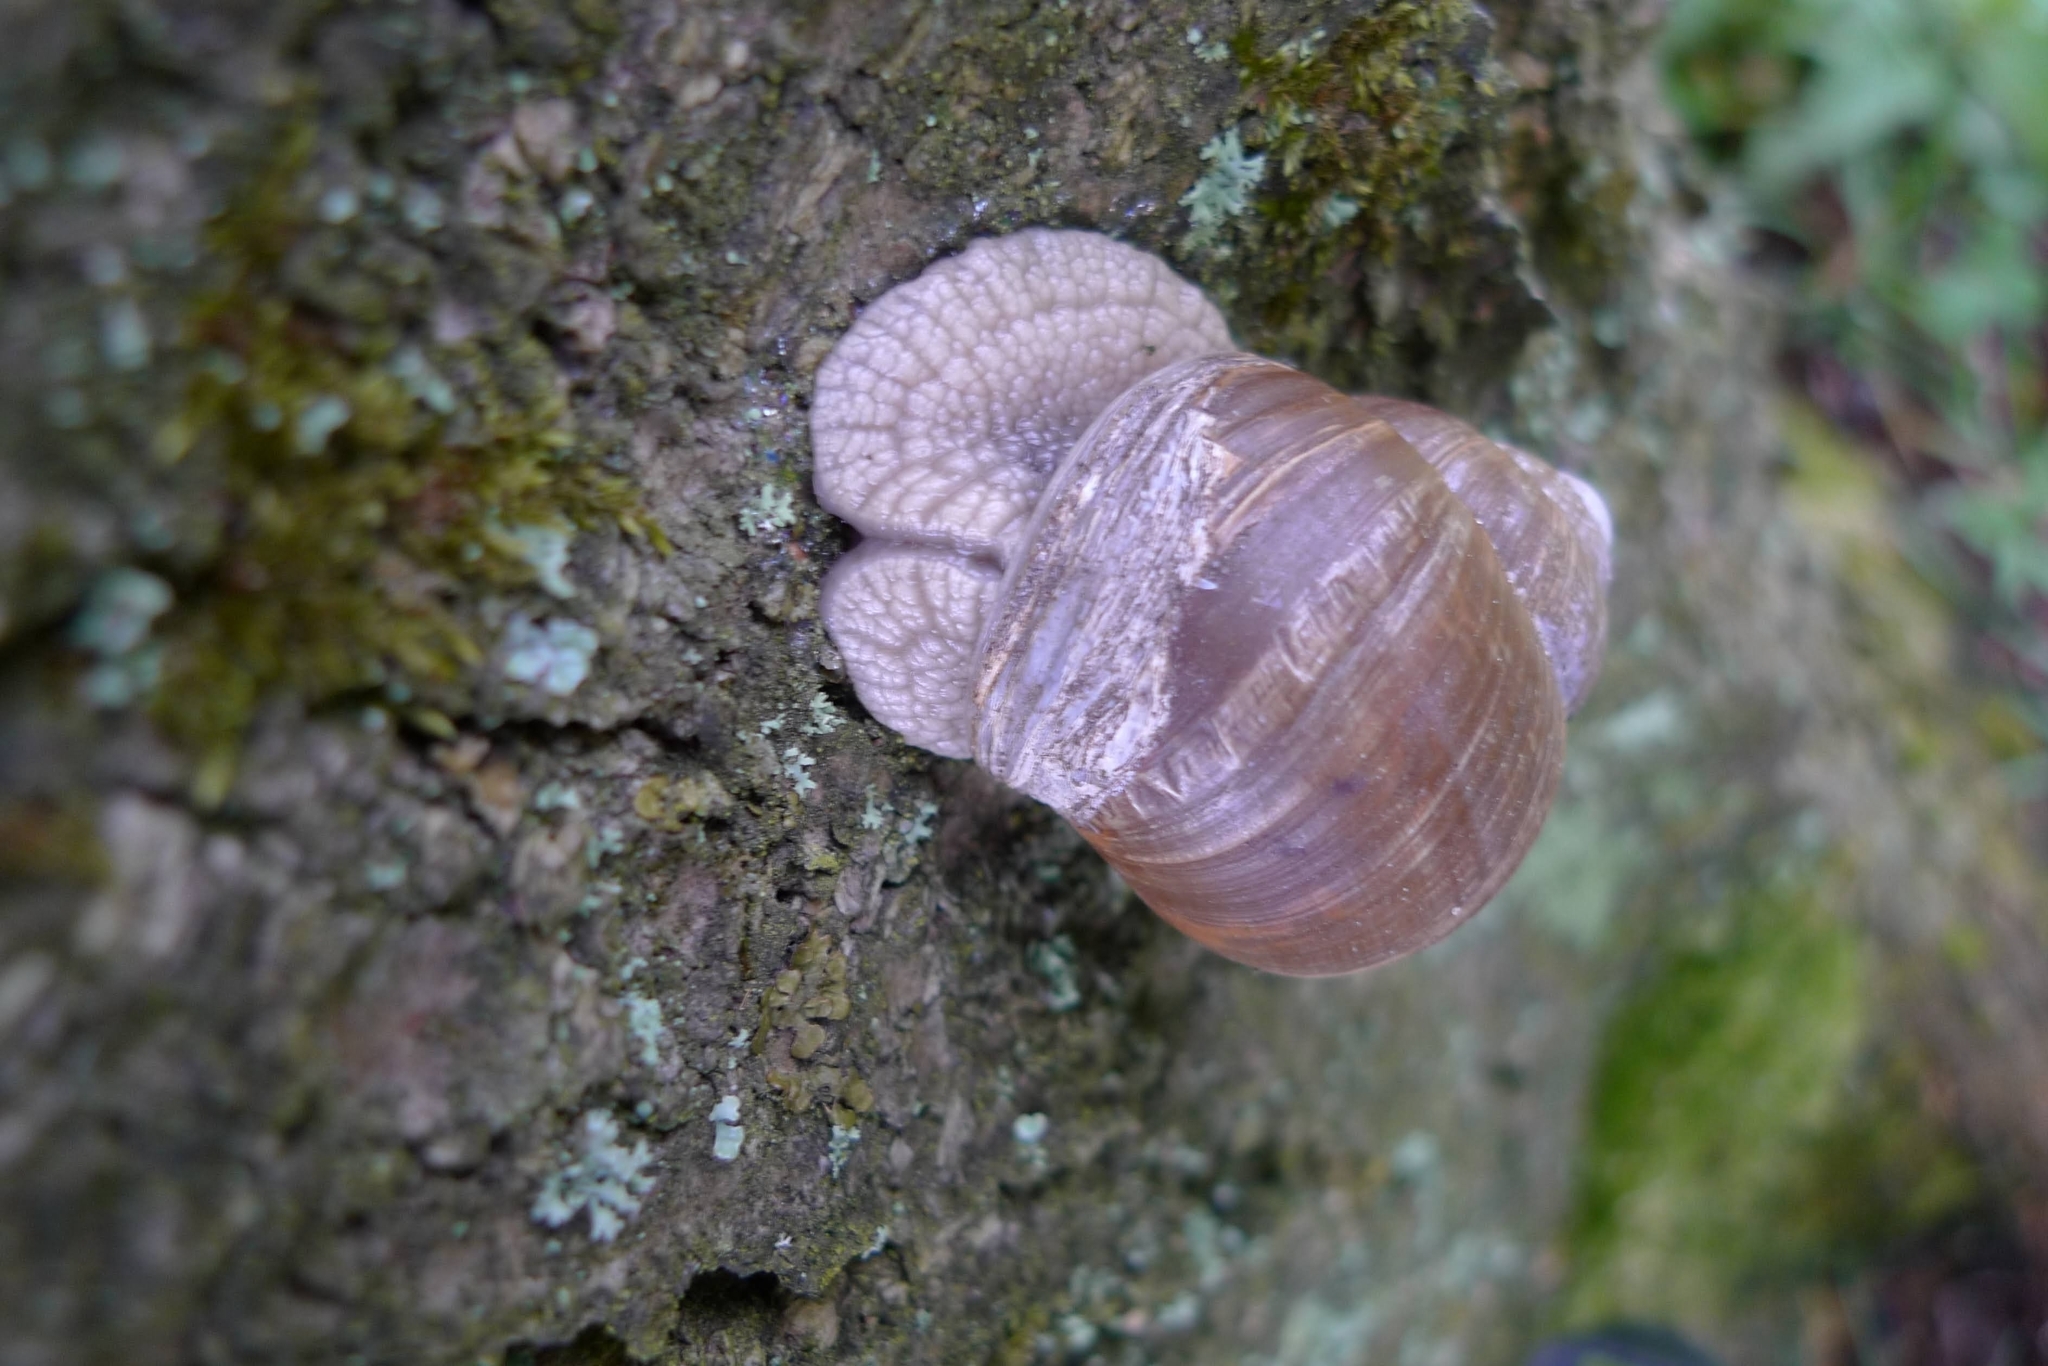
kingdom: Animalia
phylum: Mollusca
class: Gastropoda
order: Stylommatophora
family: Helicidae
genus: Helix
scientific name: Helix pomatia
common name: Roman snail
